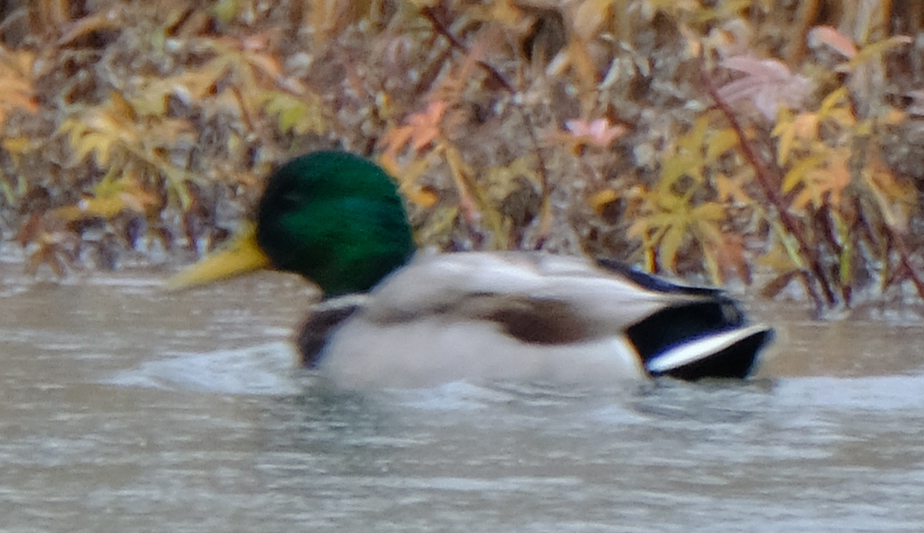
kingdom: Animalia
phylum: Chordata
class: Aves
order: Anseriformes
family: Anatidae
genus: Anas
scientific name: Anas platyrhynchos
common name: Mallard
